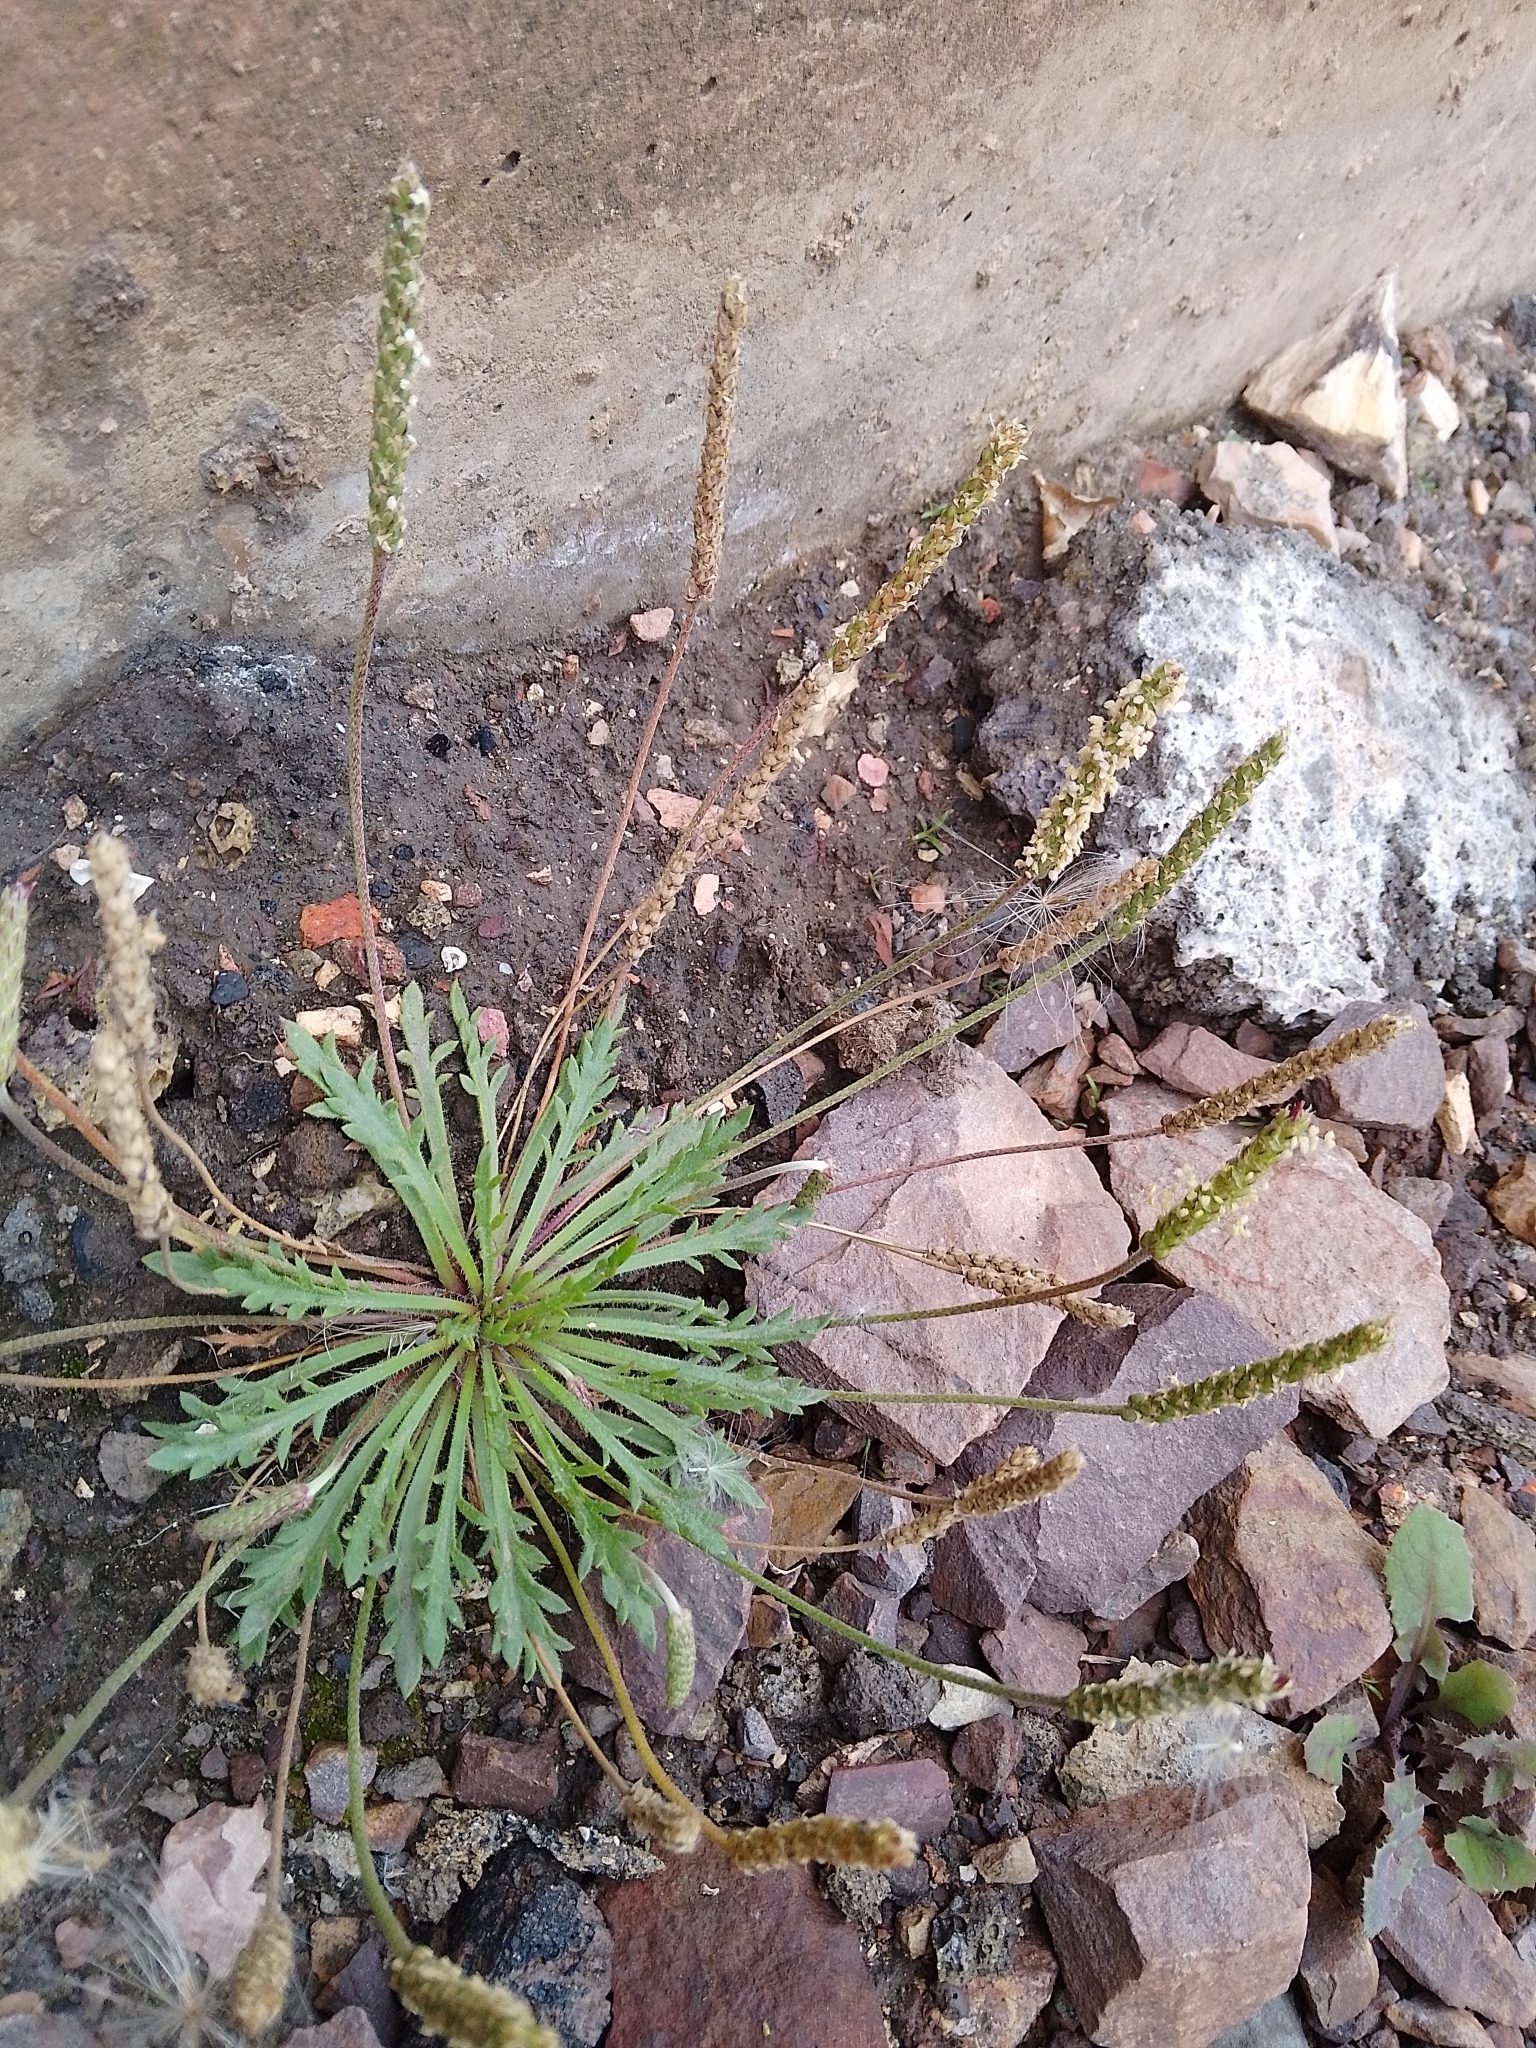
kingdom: Plantae
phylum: Tracheophyta
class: Magnoliopsida
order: Lamiales
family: Plantaginaceae
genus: Plantago
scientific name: Plantago coronopus
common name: Buck's-horn plantain
